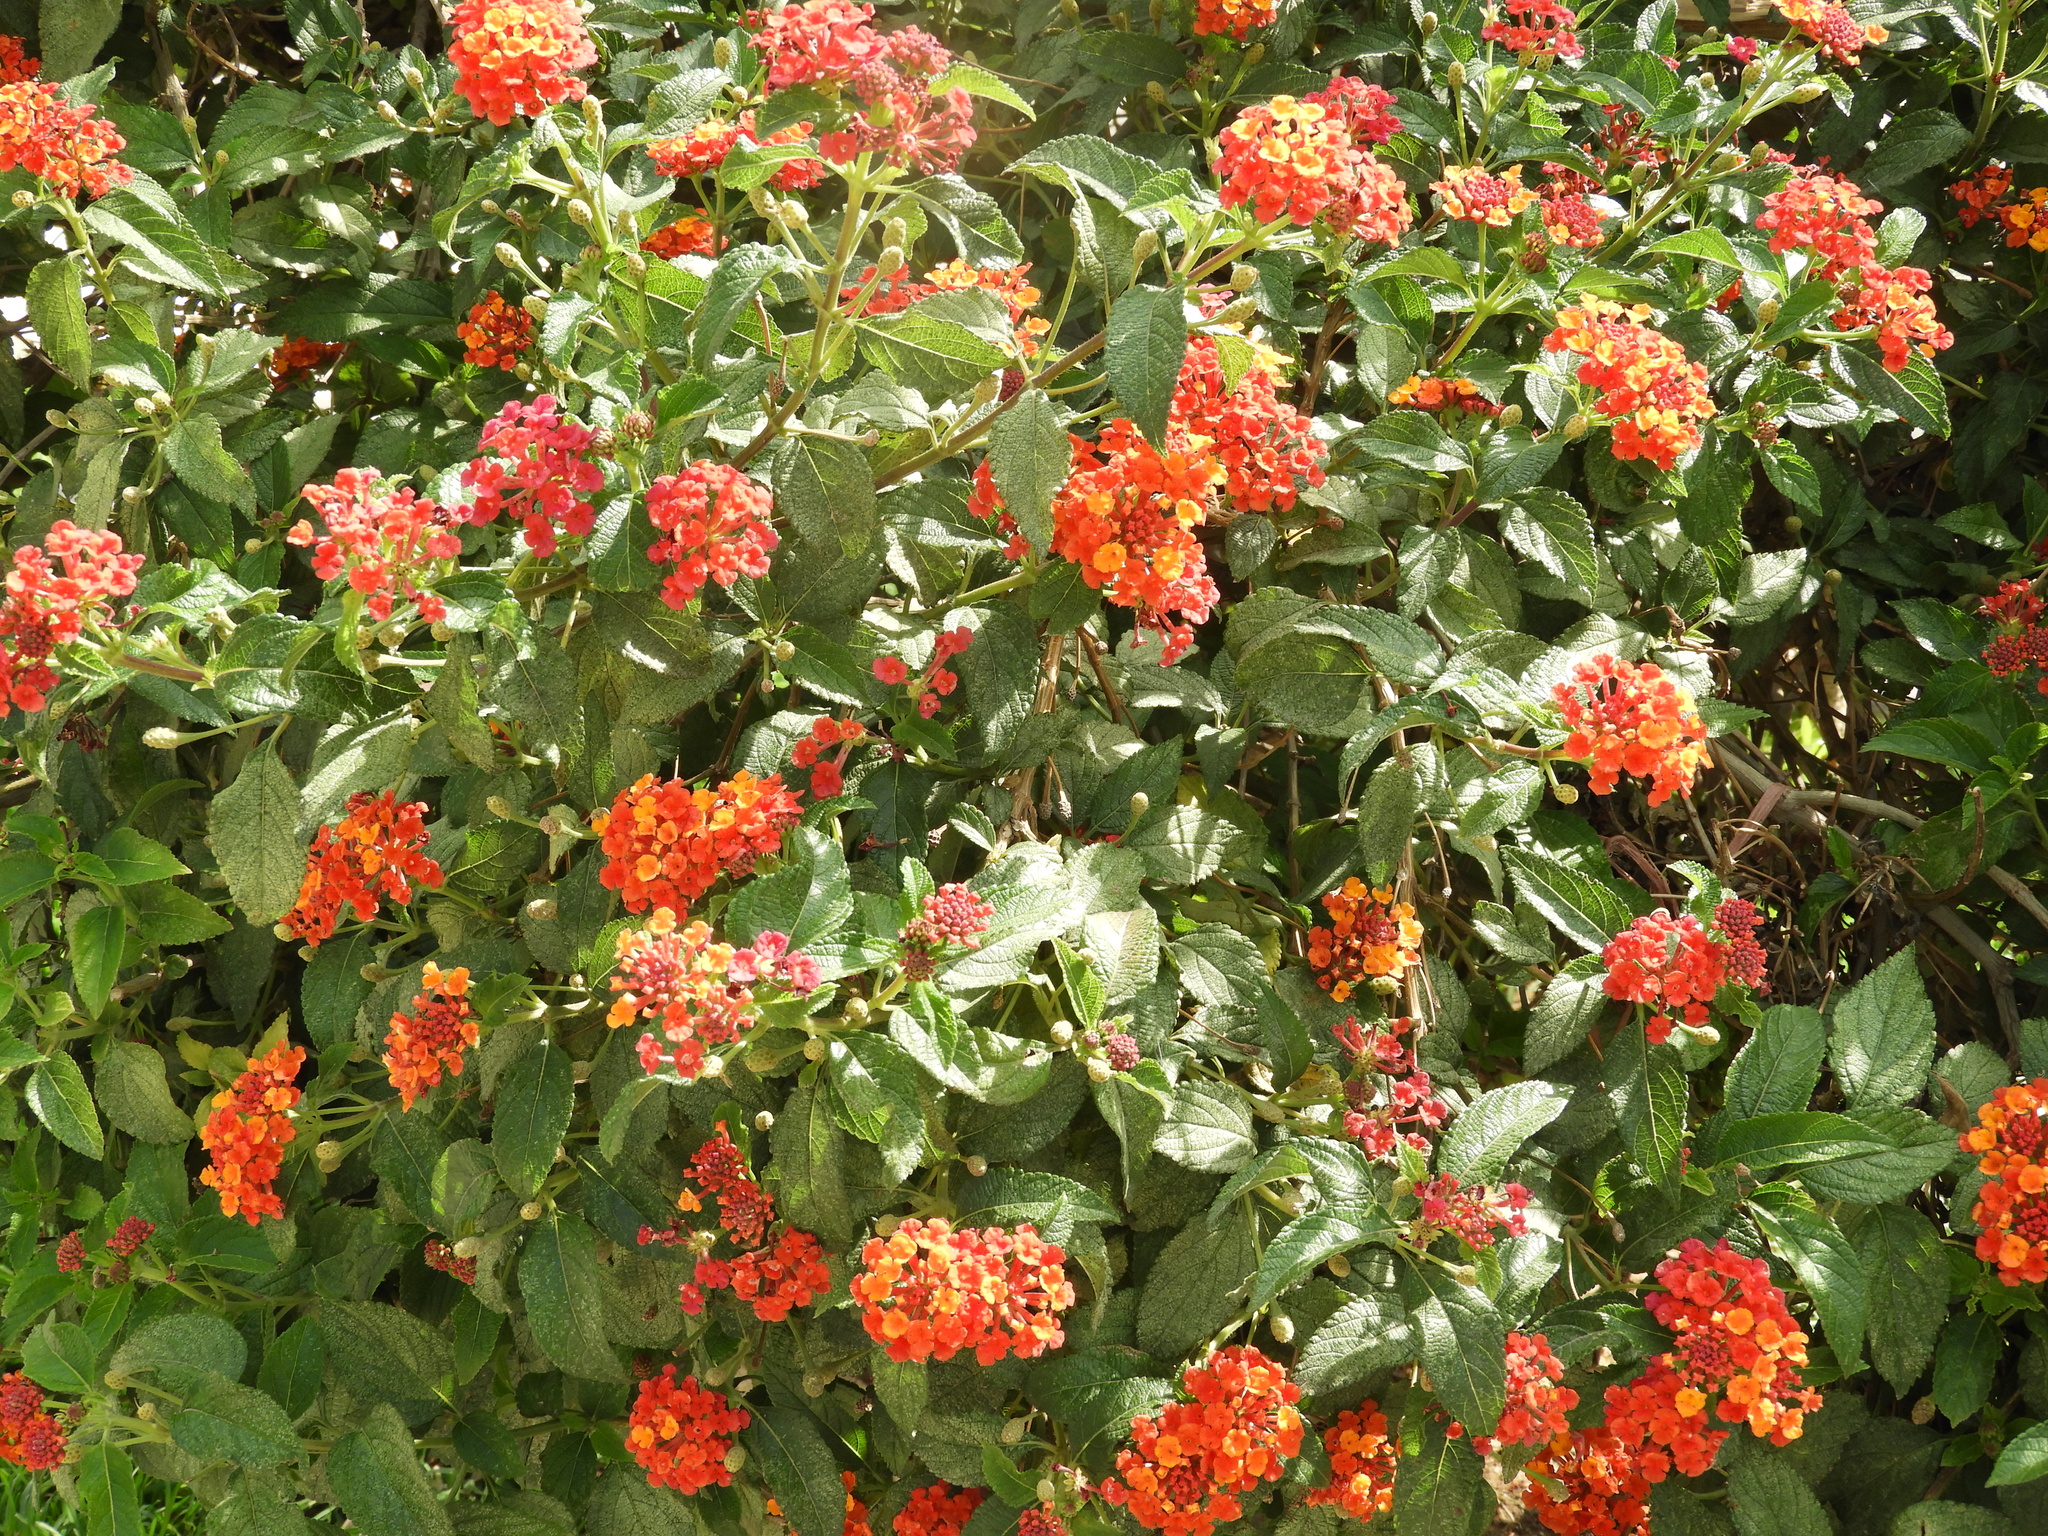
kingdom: Plantae
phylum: Tracheophyta
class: Magnoliopsida
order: Lamiales
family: Verbenaceae
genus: Lantana
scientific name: Lantana camara
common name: Lantana
